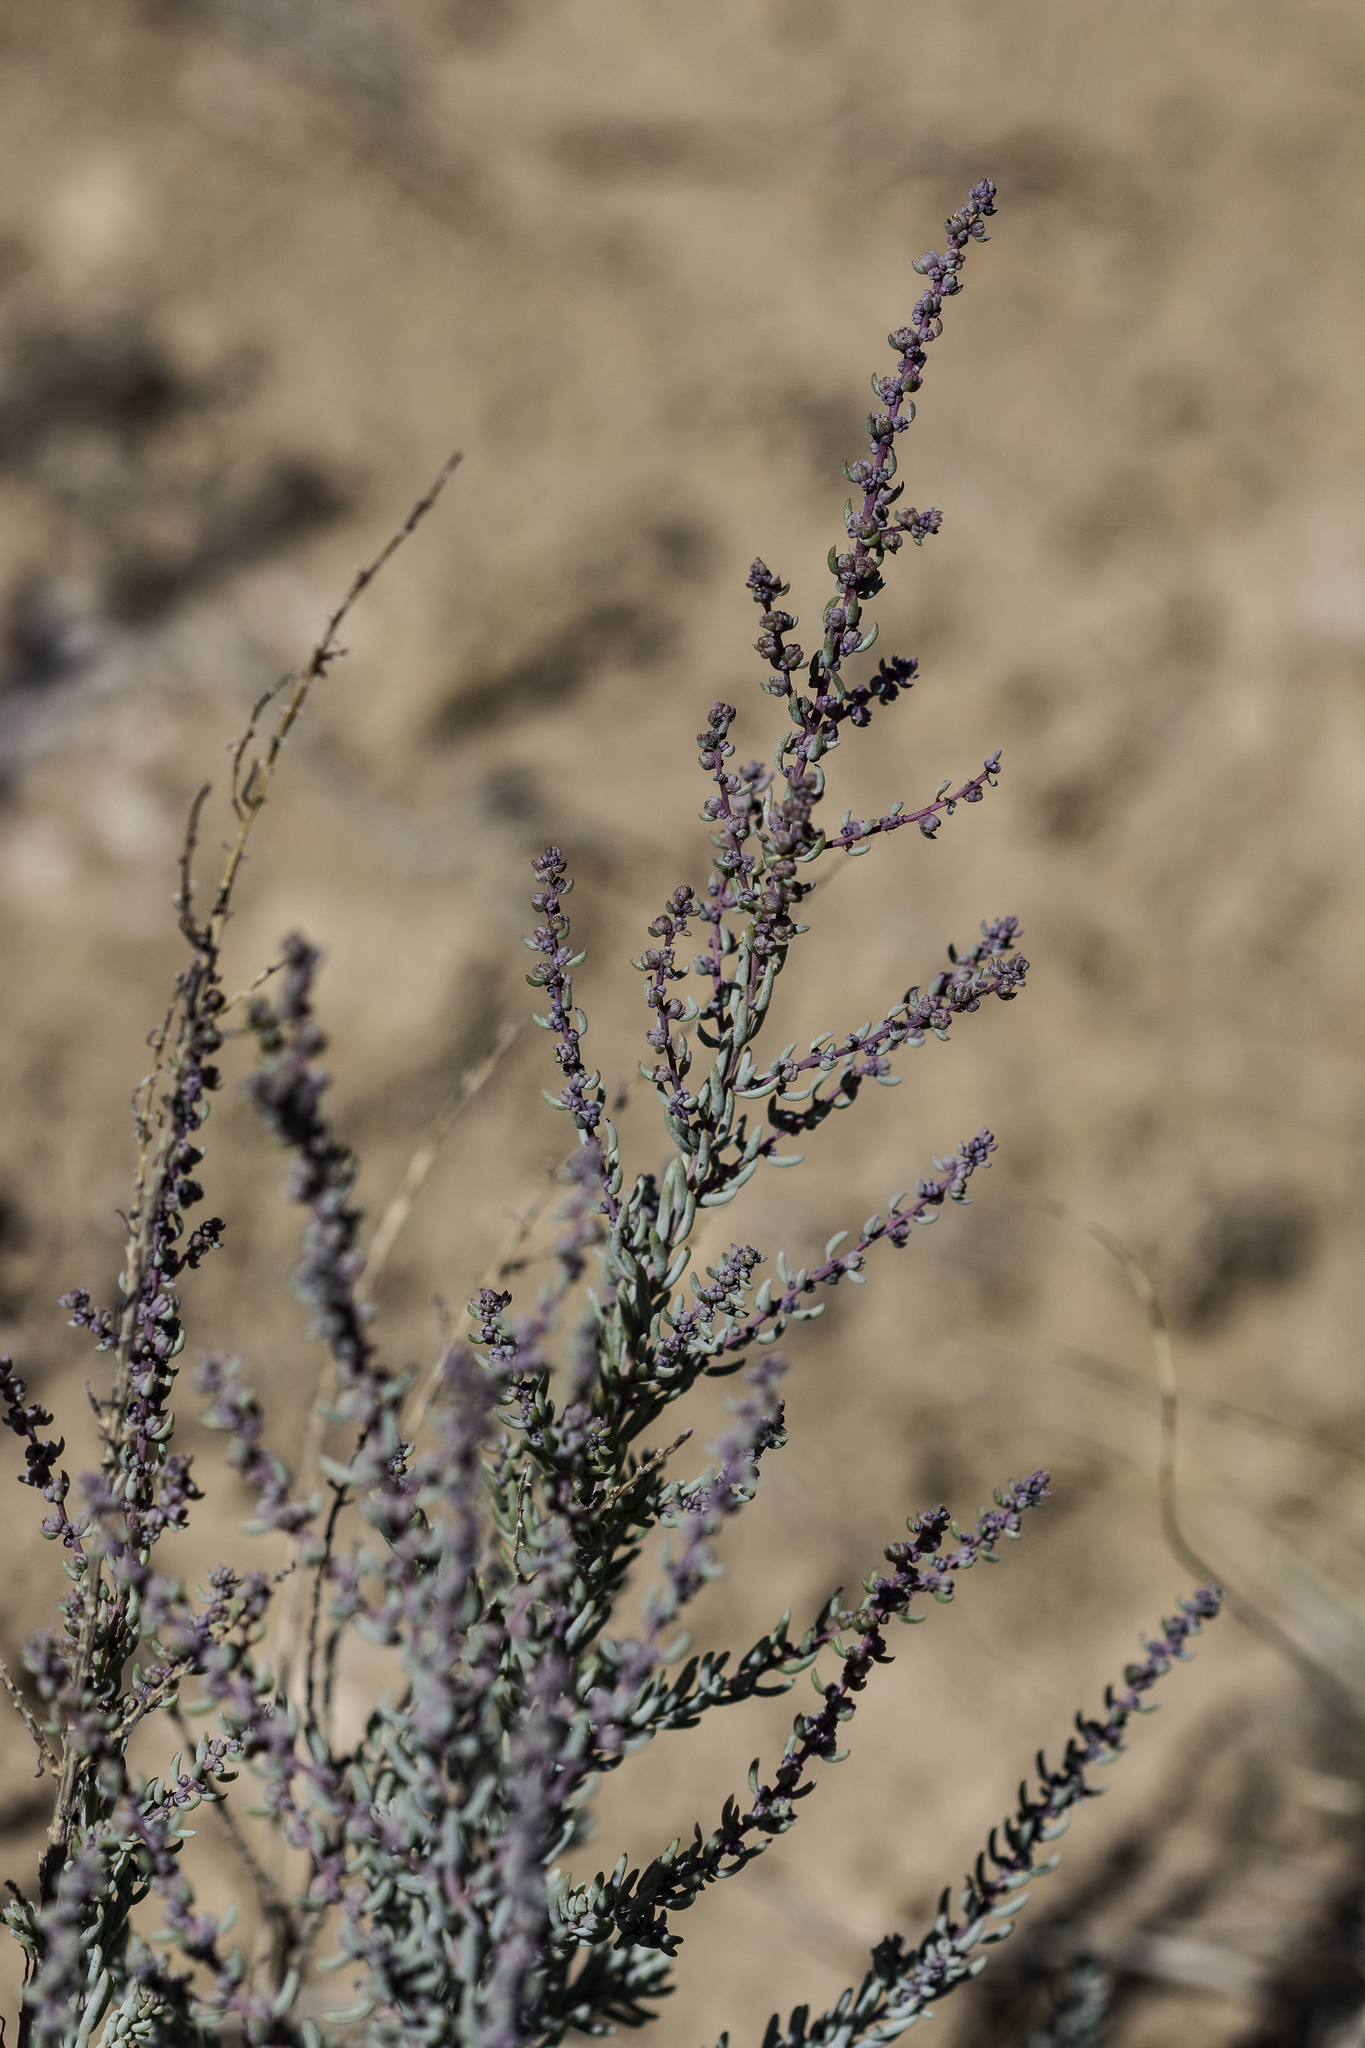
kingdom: Plantae
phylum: Tracheophyta
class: Magnoliopsida
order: Caryophyllales
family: Amaranthaceae
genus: Suaeda
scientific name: Suaeda nigra
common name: Bush seepweed
